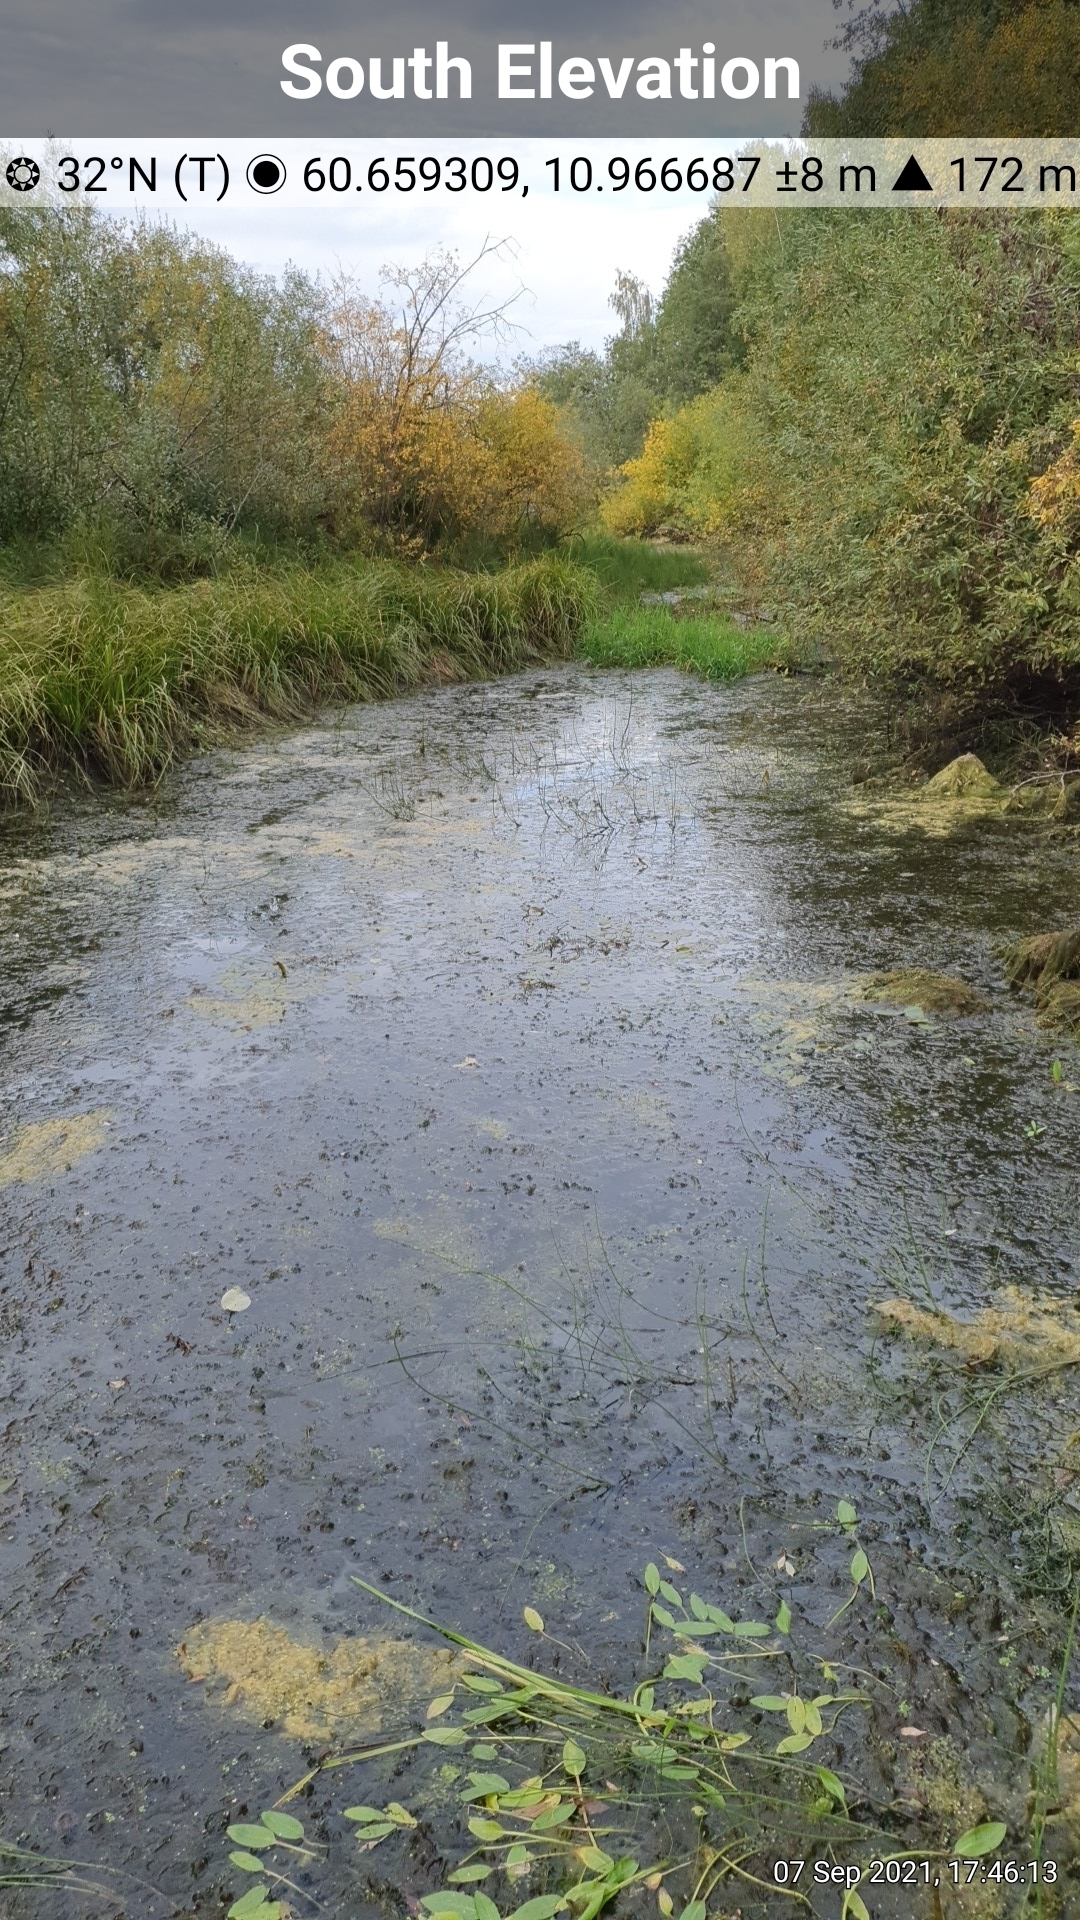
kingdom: Plantae
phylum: Tracheophyta
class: Liliopsida
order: Alismatales
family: Araceae
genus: Lemna
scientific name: Lemna trisulca
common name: Ivy-leaved duckweed
